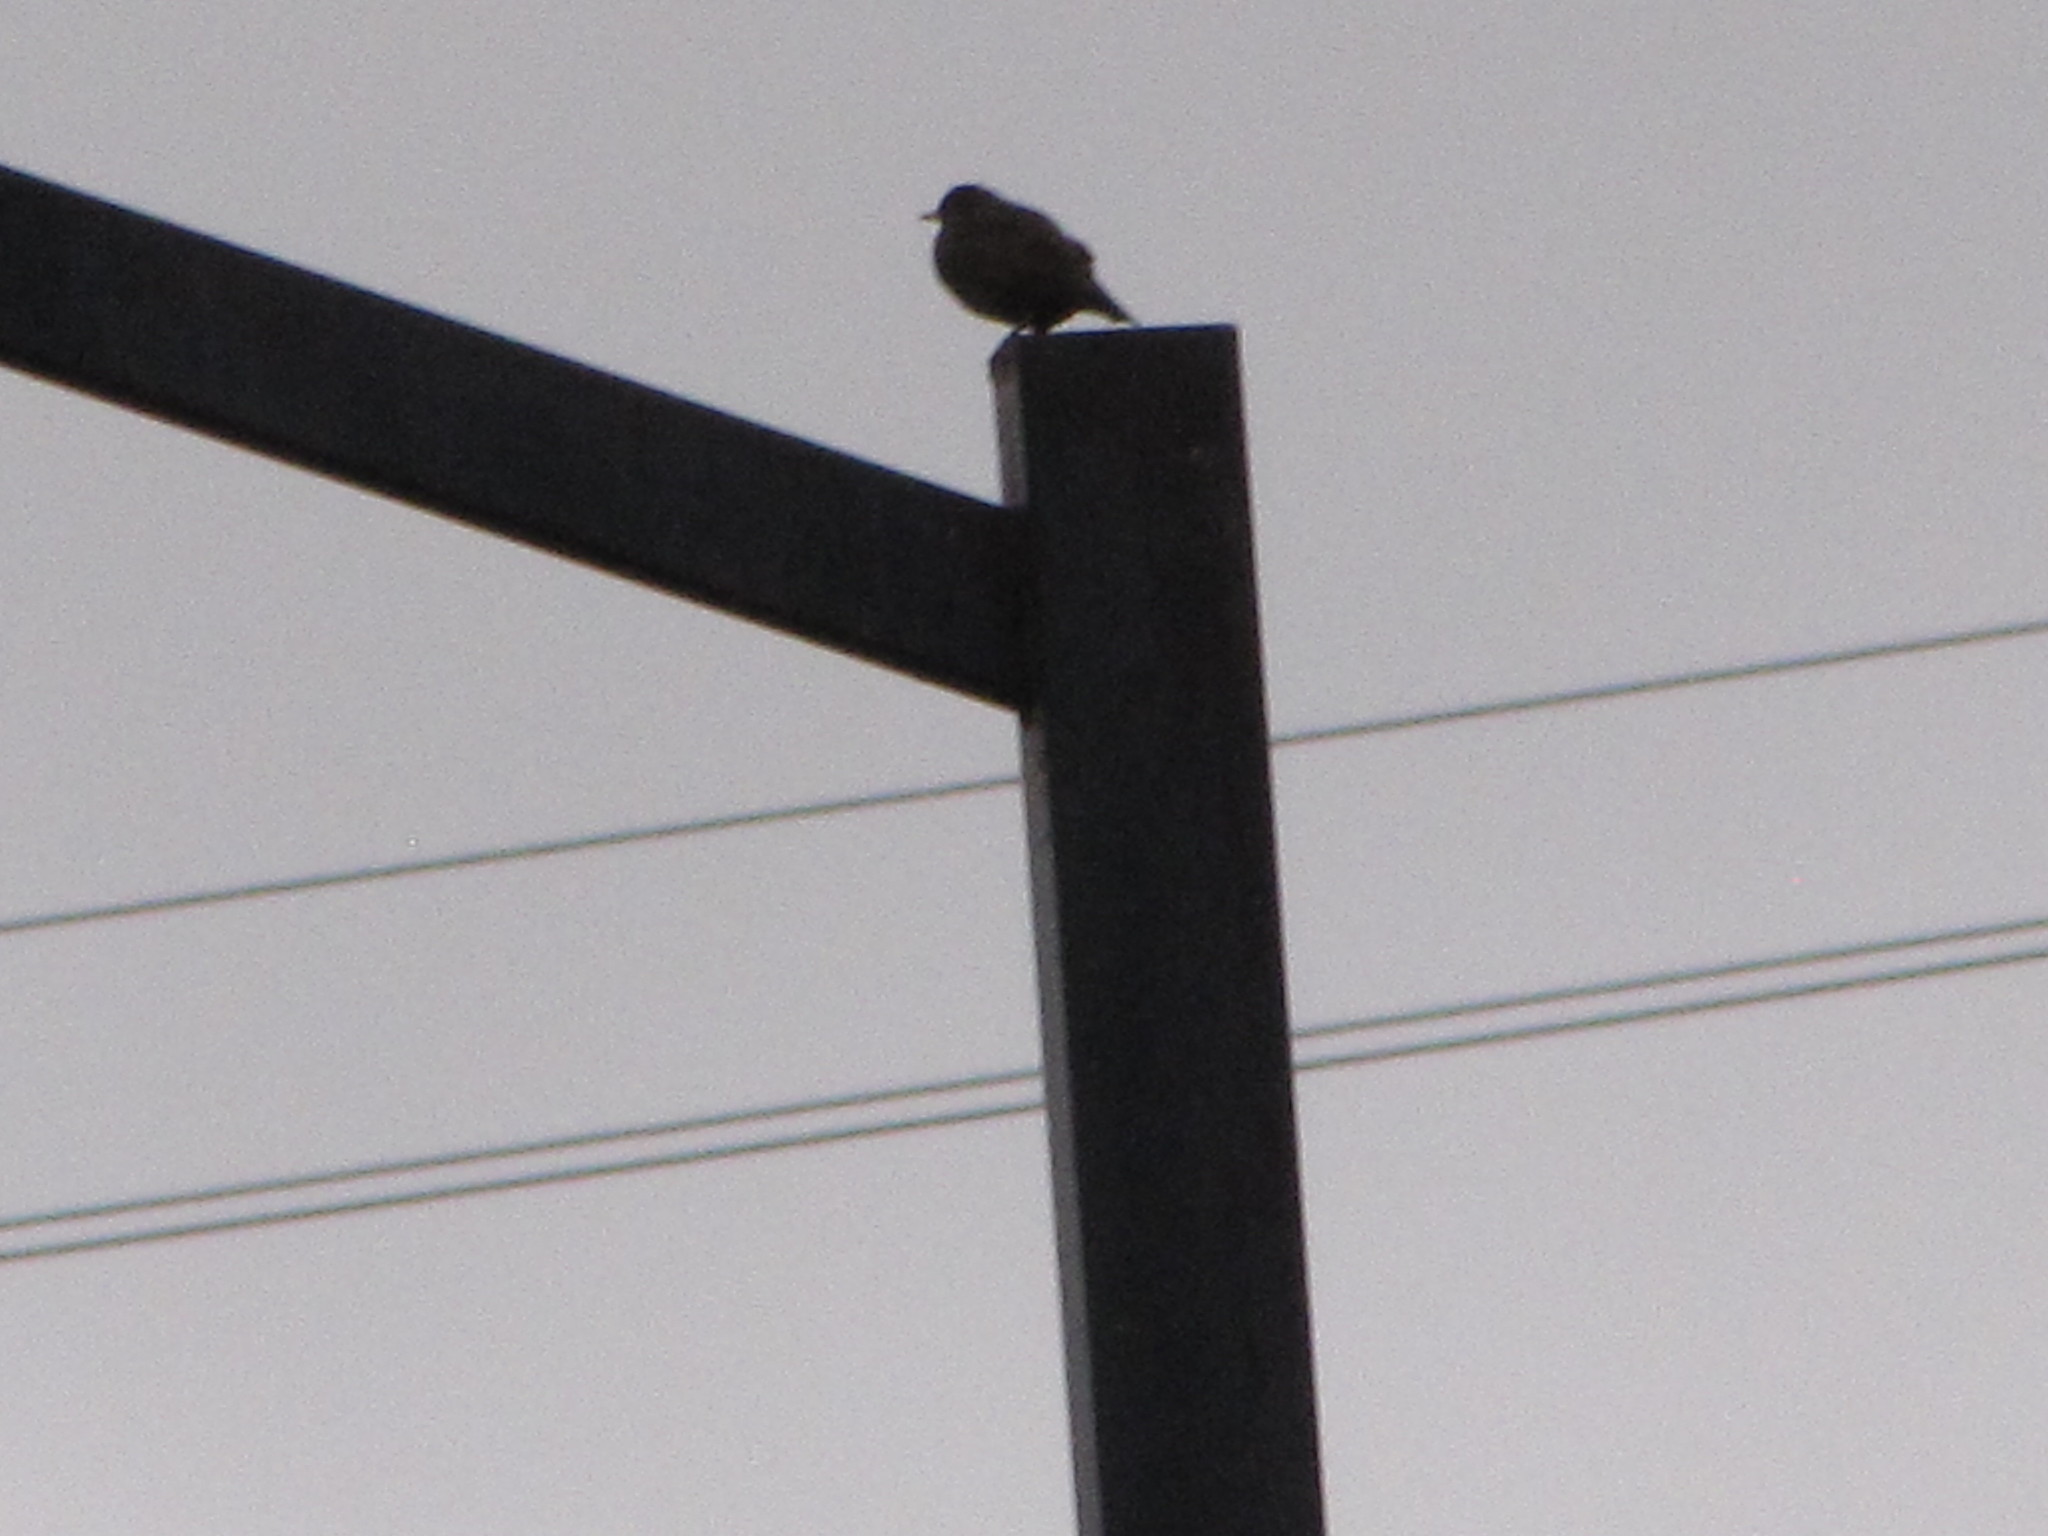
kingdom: Animalia
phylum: Chordata
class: Aves
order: Passeriformes
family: Sturnidae
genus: Sturnus
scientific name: Sturnus vulgaris
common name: Common starling
